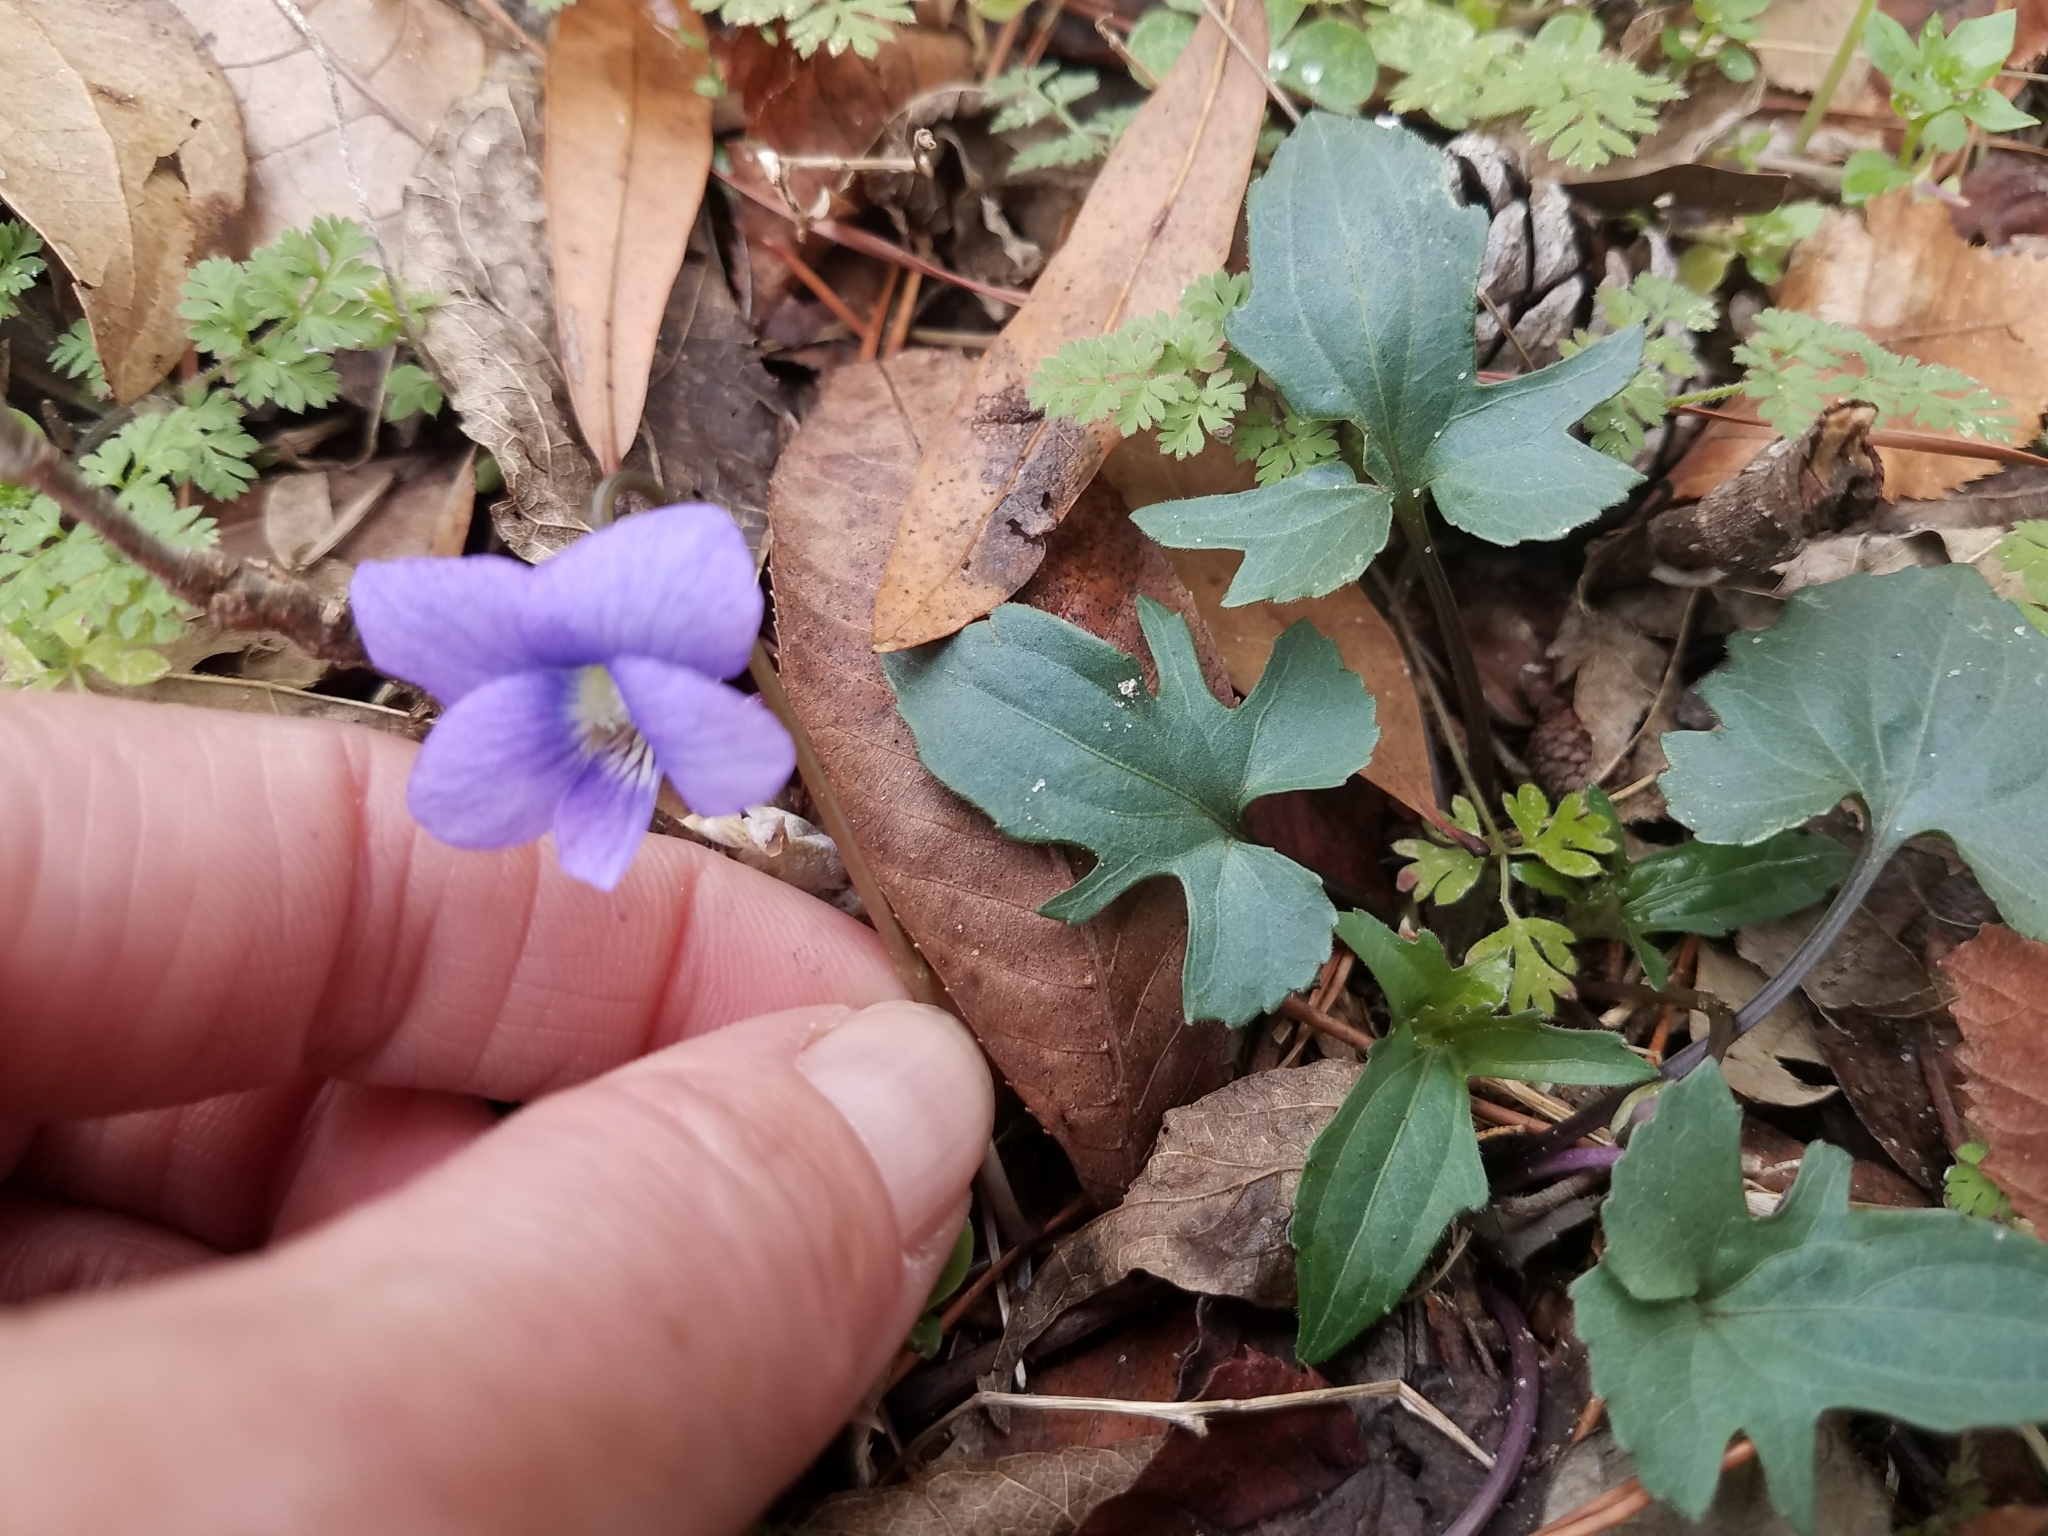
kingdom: Plantae
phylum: Tracheophyta
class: Magnoliopsida
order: Malpighiales
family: Violaceae
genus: Viola
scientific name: Viola palmata
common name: Early blue violet
